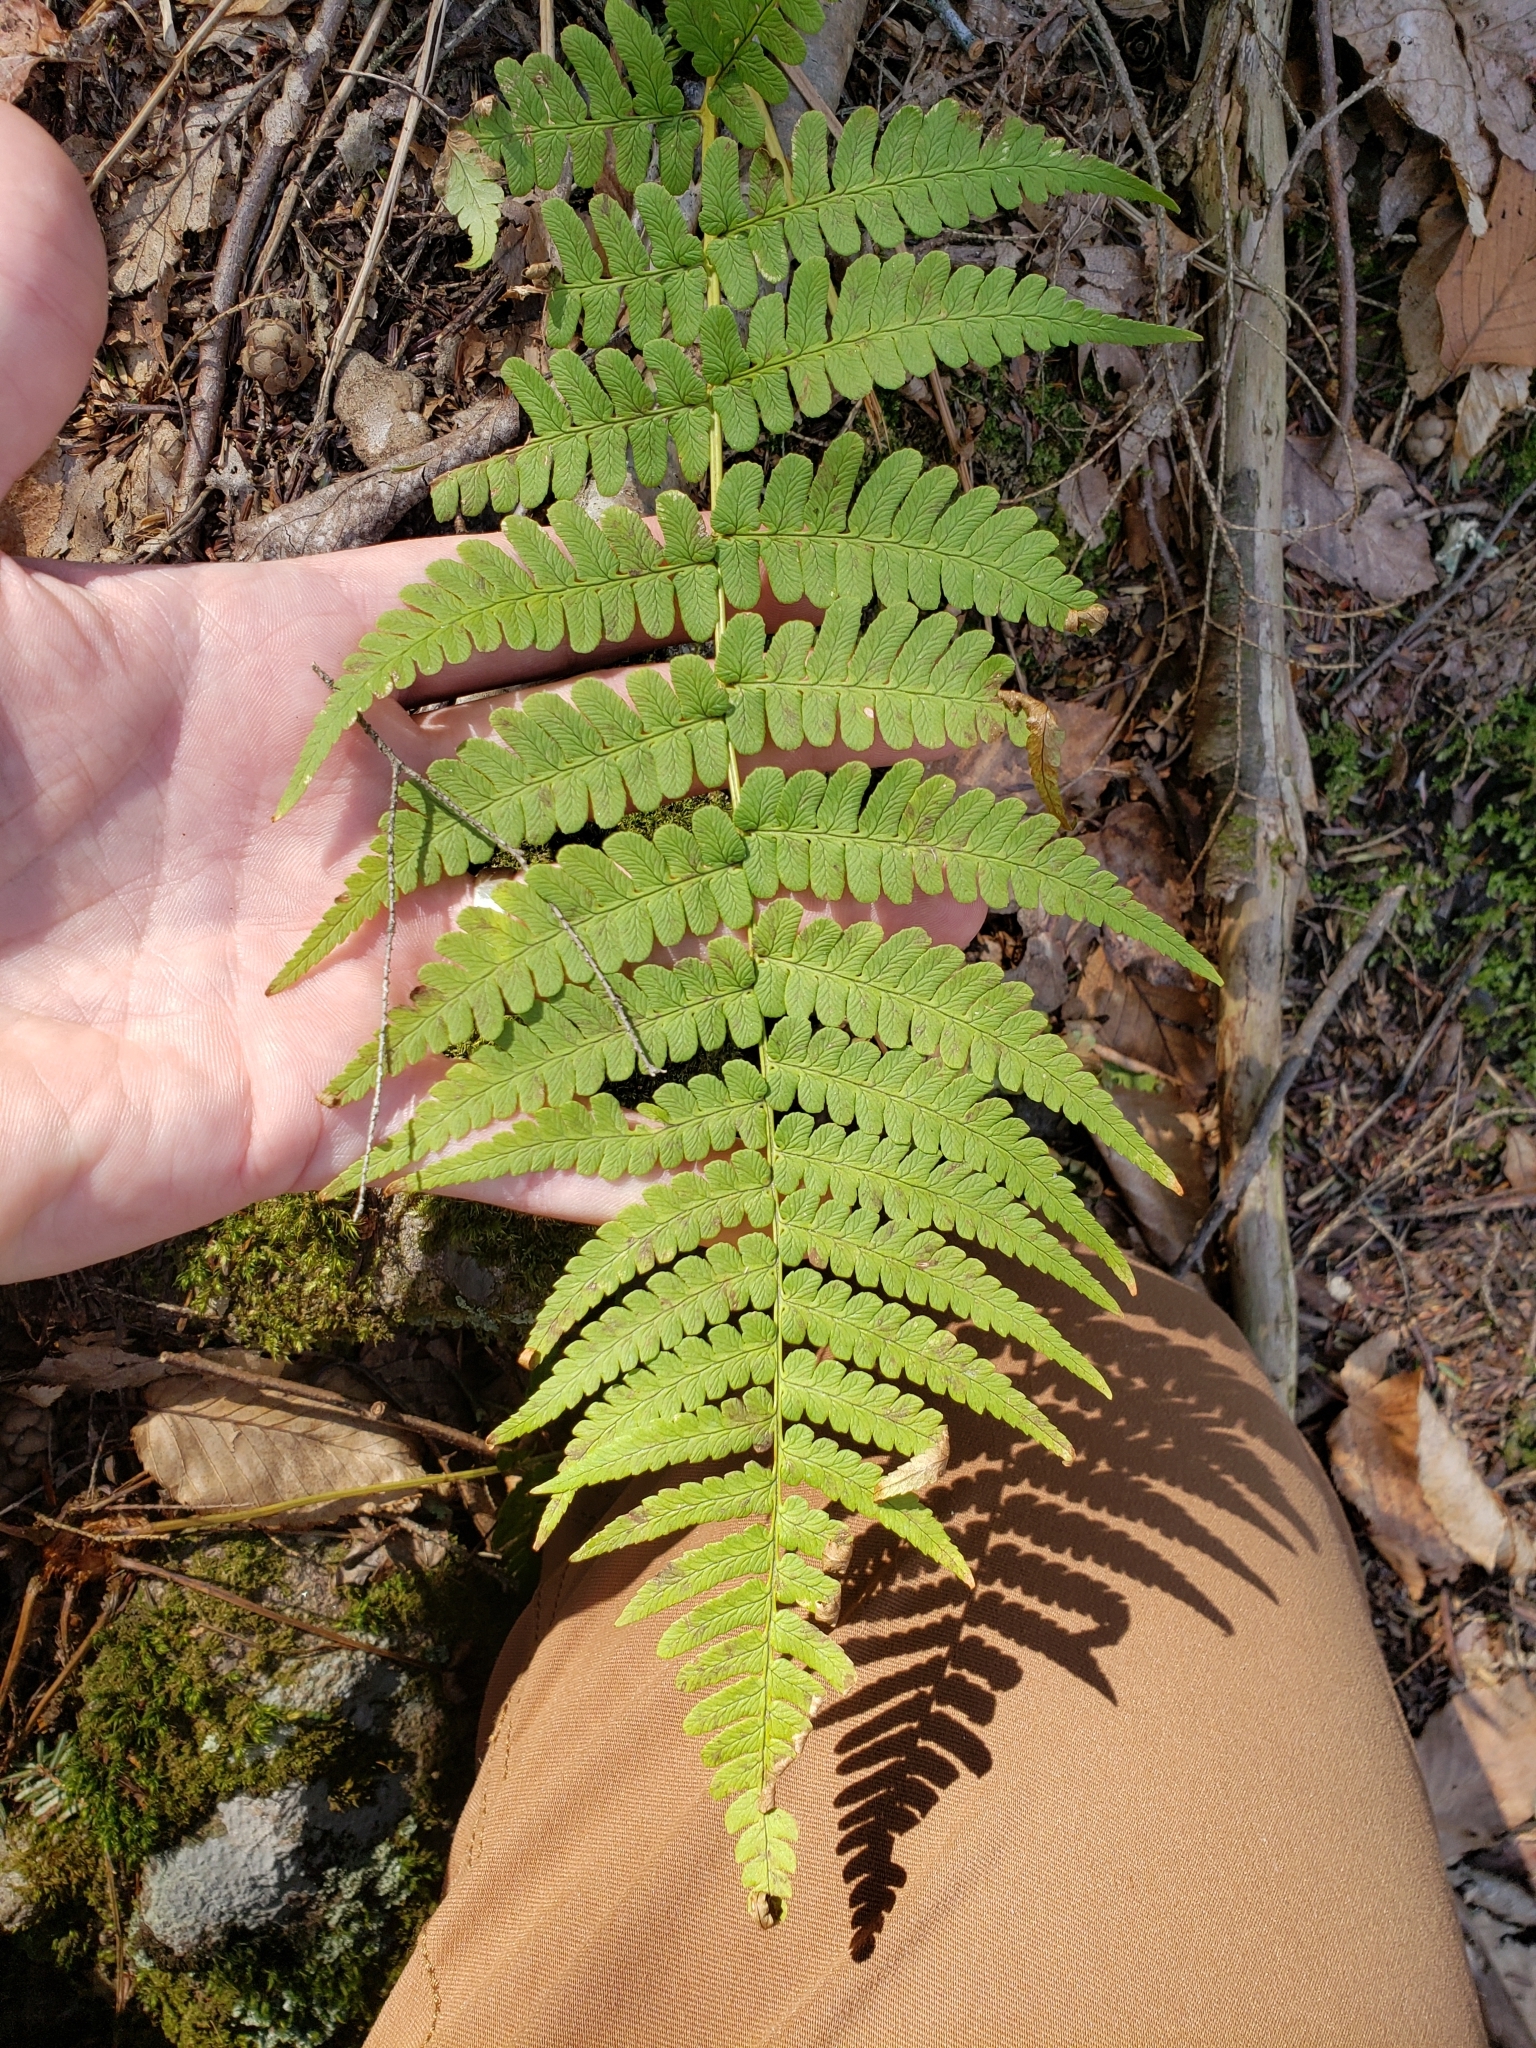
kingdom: Plantae
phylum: Tracheophyta
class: Polypodiopsida
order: Polypodiales
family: Dryopteridaceae
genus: Dryopteris
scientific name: Dryopteris marginalis
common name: Marginal wood fern
